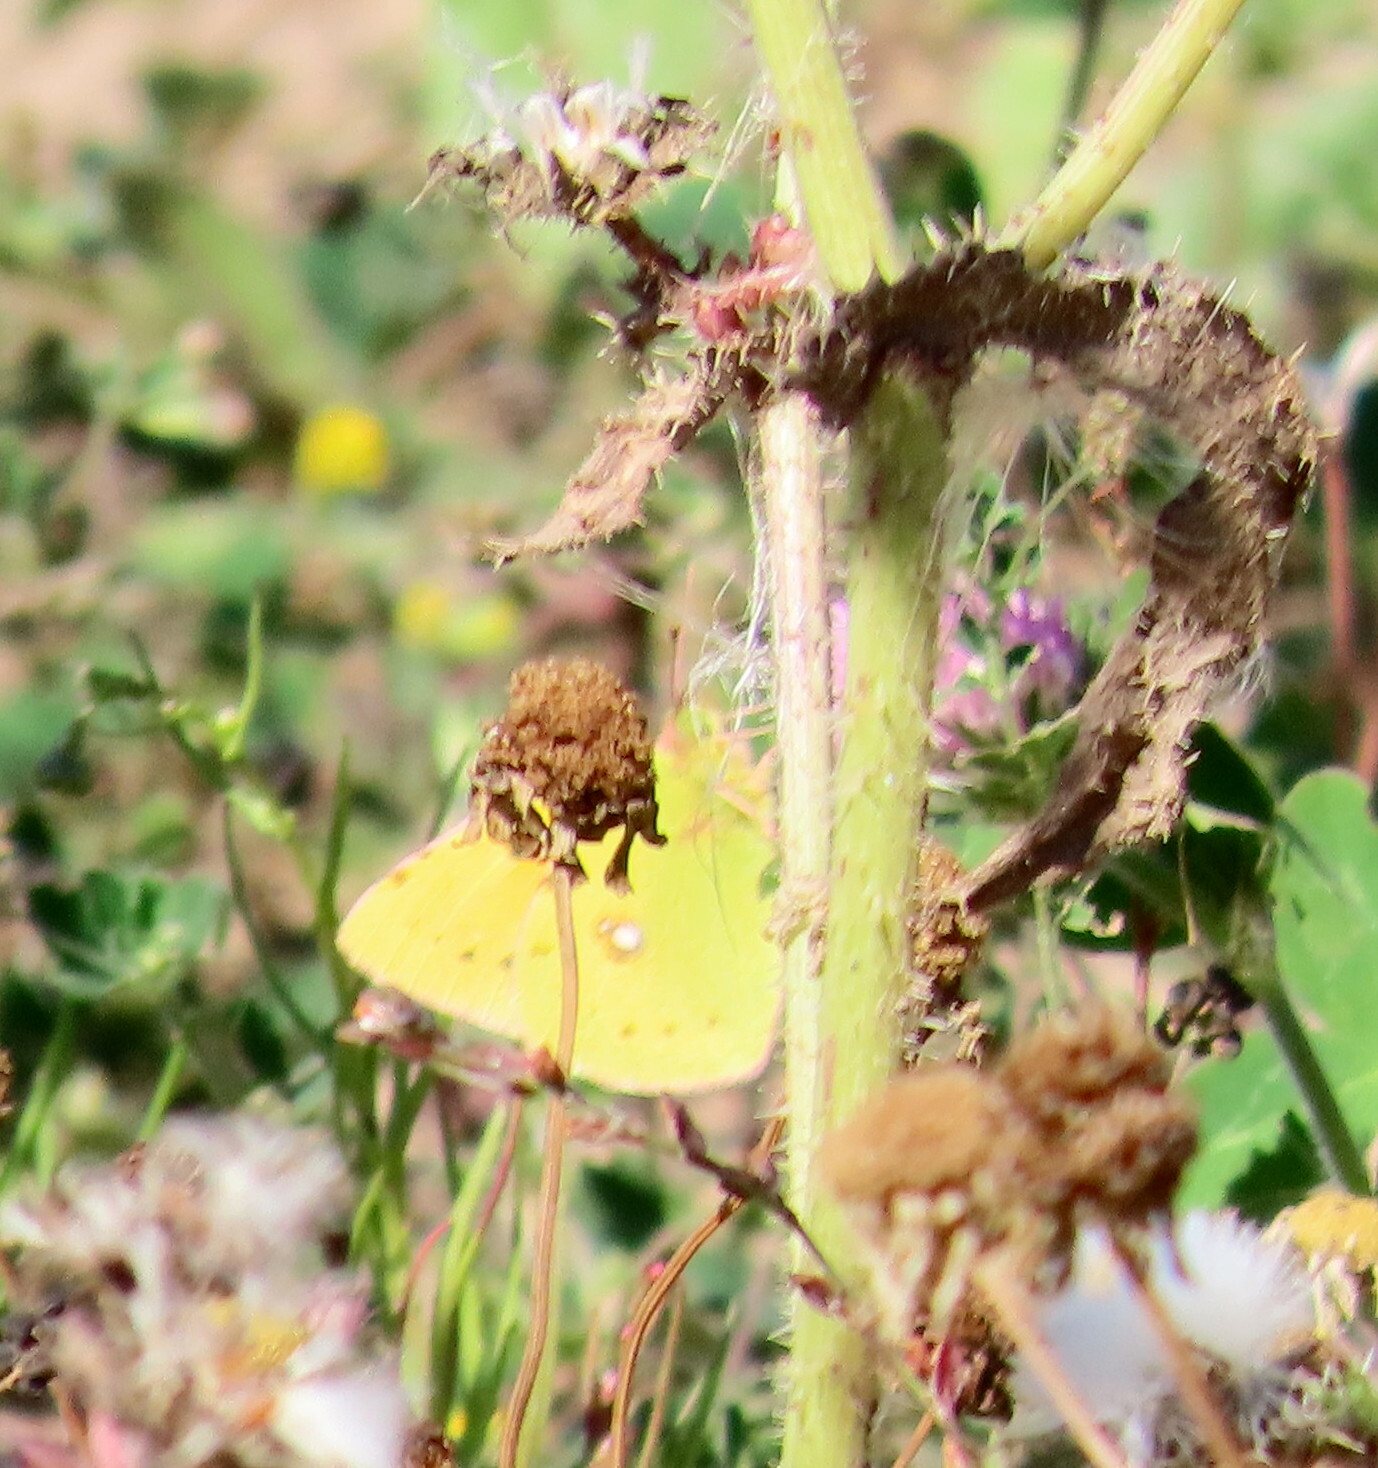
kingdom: Animalia
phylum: Arthropoda
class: Insecta
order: Lepidoptera
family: Pieridae
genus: Colias
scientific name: Colias croceus
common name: Clouded yellow
